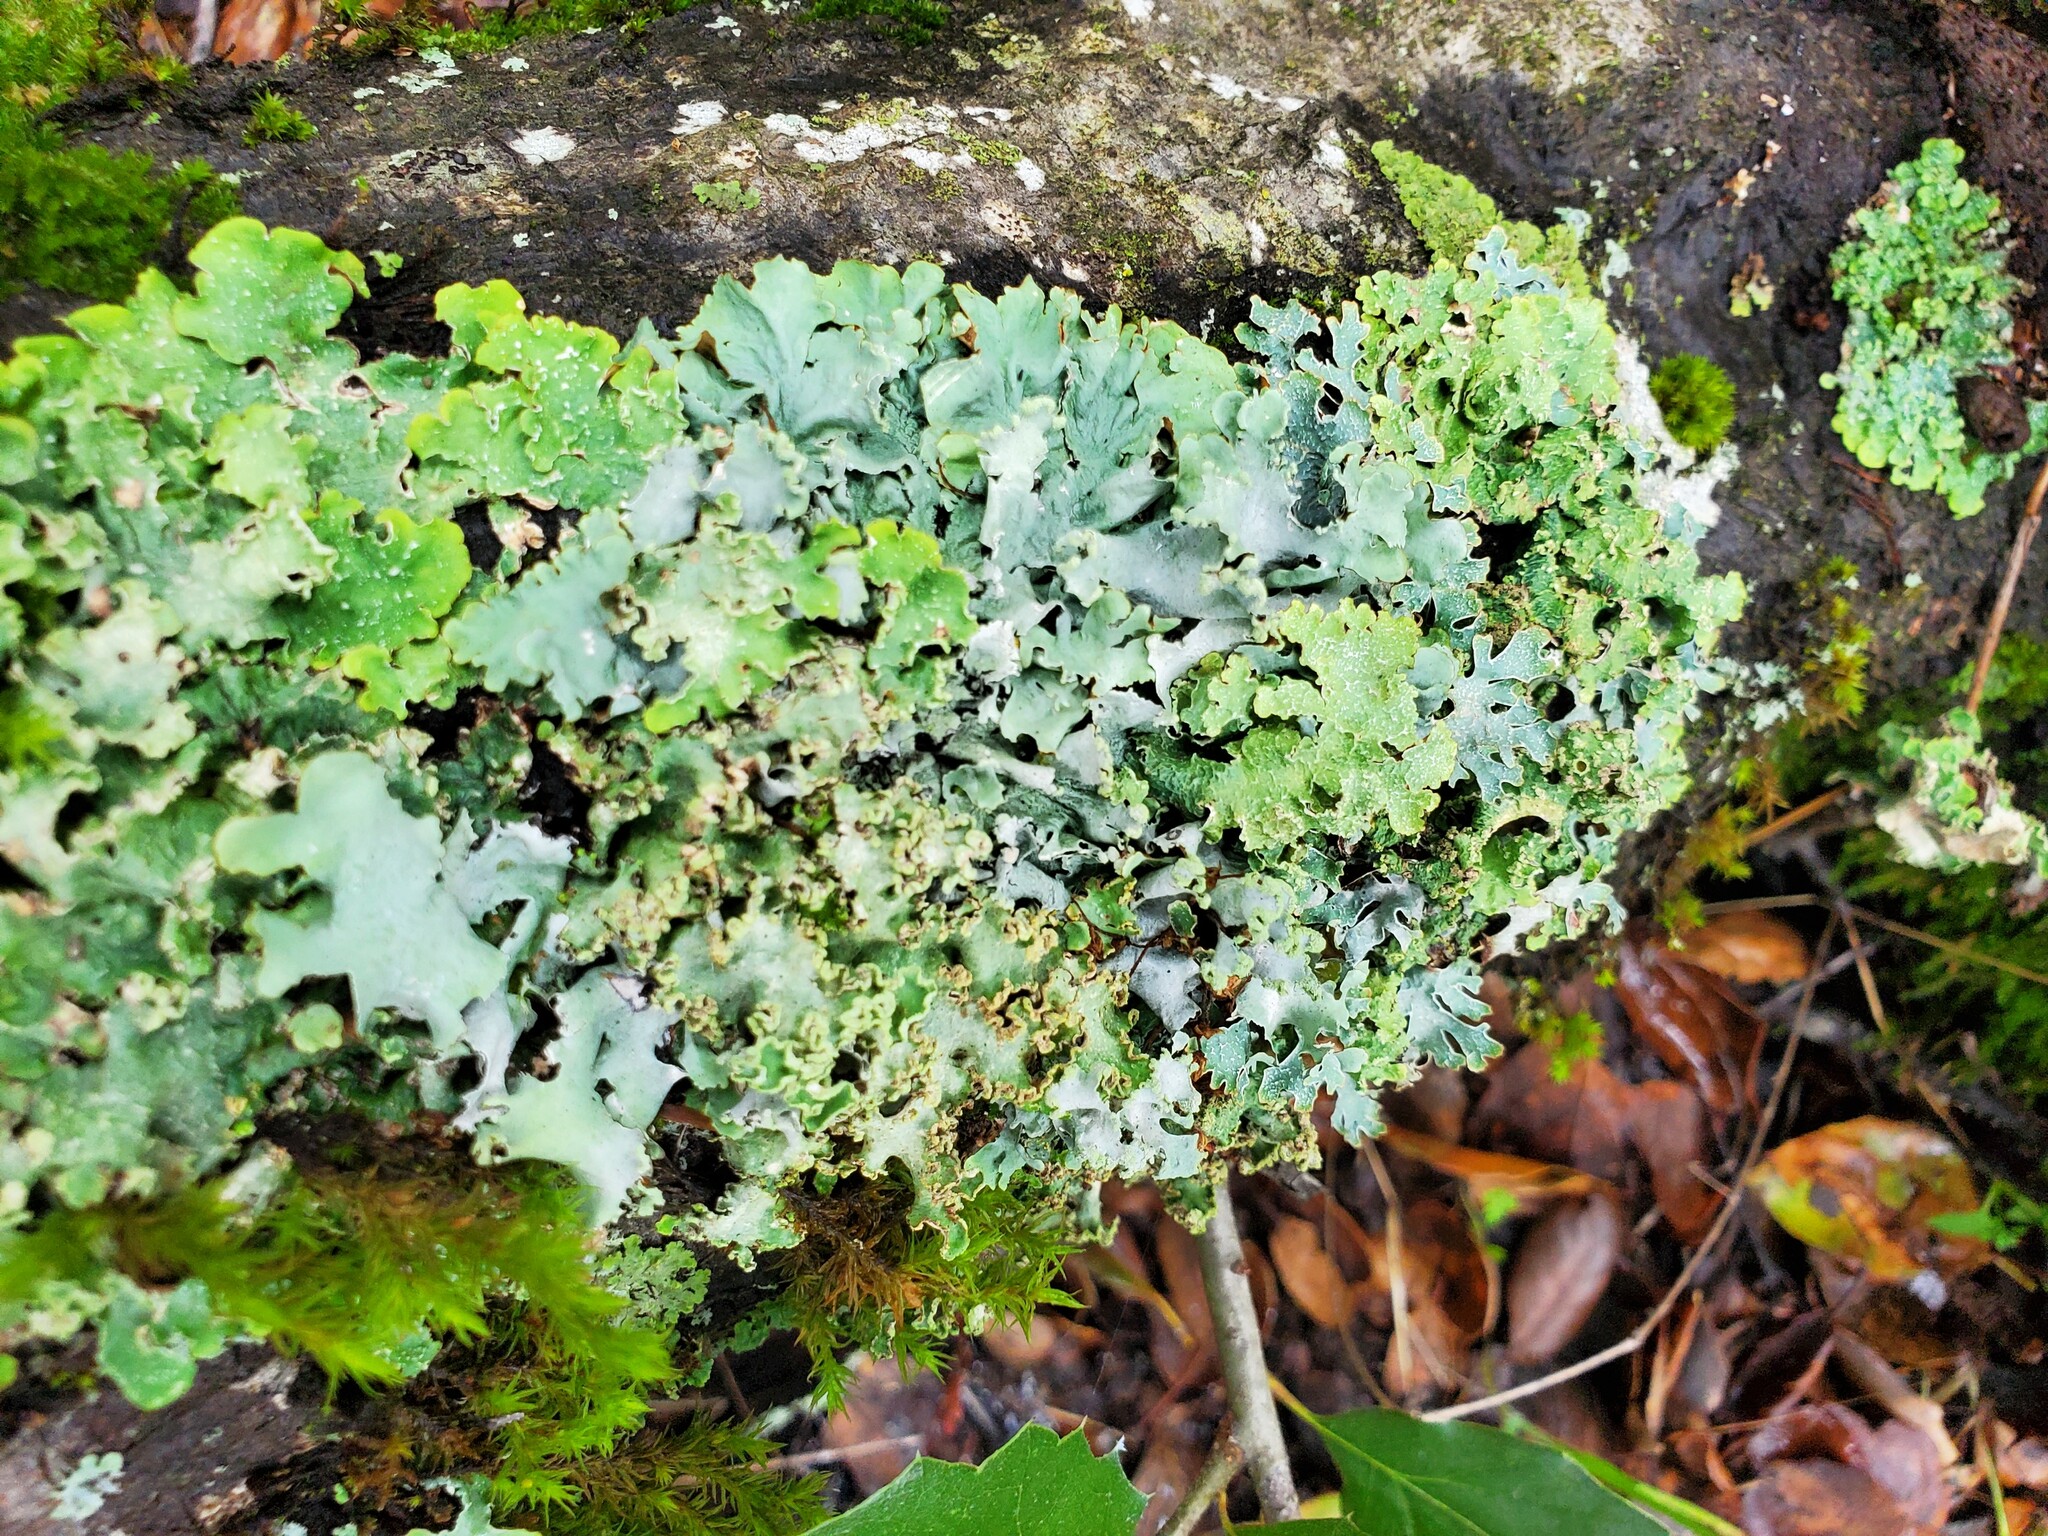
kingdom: Fungi
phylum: Ascomycota
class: Lecanoromycetes
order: Lecanorales
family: Parmeliaceae
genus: Flavopunctelia
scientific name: Flavopunctelia flaventior
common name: Speckled greenshield
